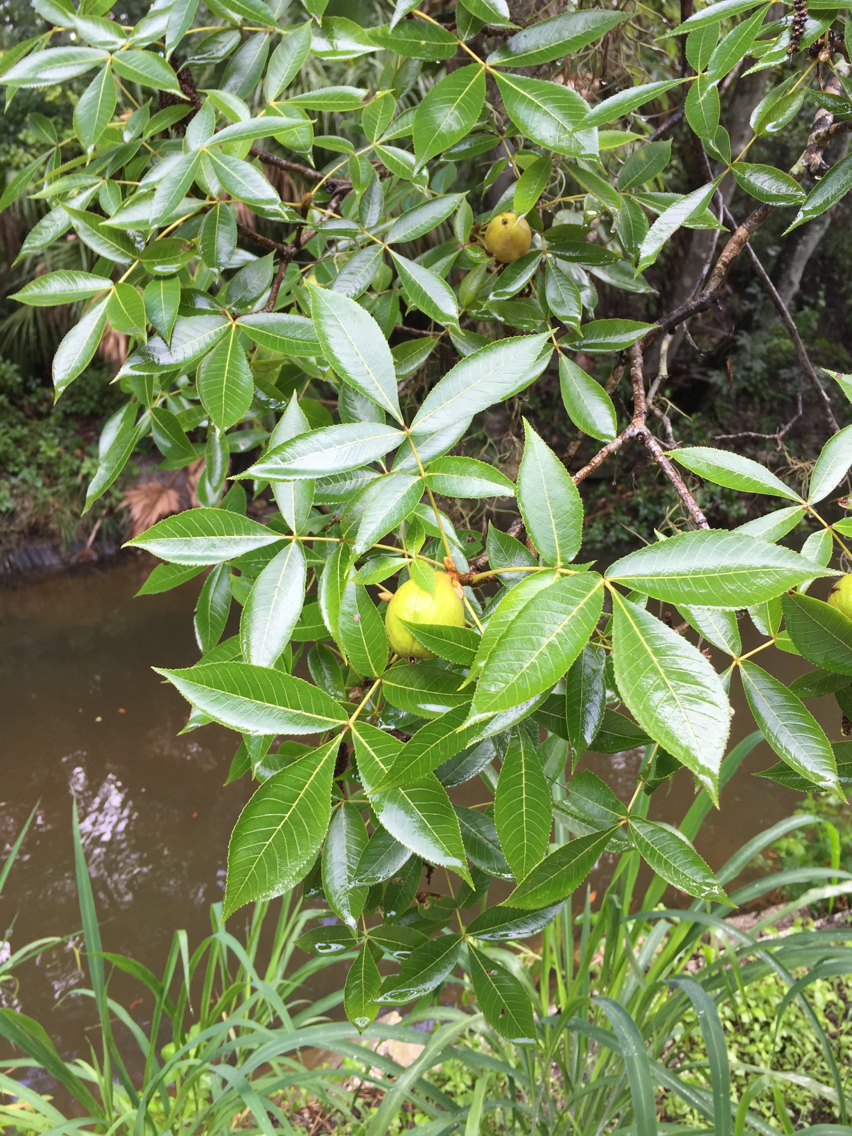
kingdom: Plantae
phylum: Tracheophyta
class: Magnoliopsida
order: Fagales
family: Juglandaceae
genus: Carya
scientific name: Carya glabra
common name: Pignut hickory
